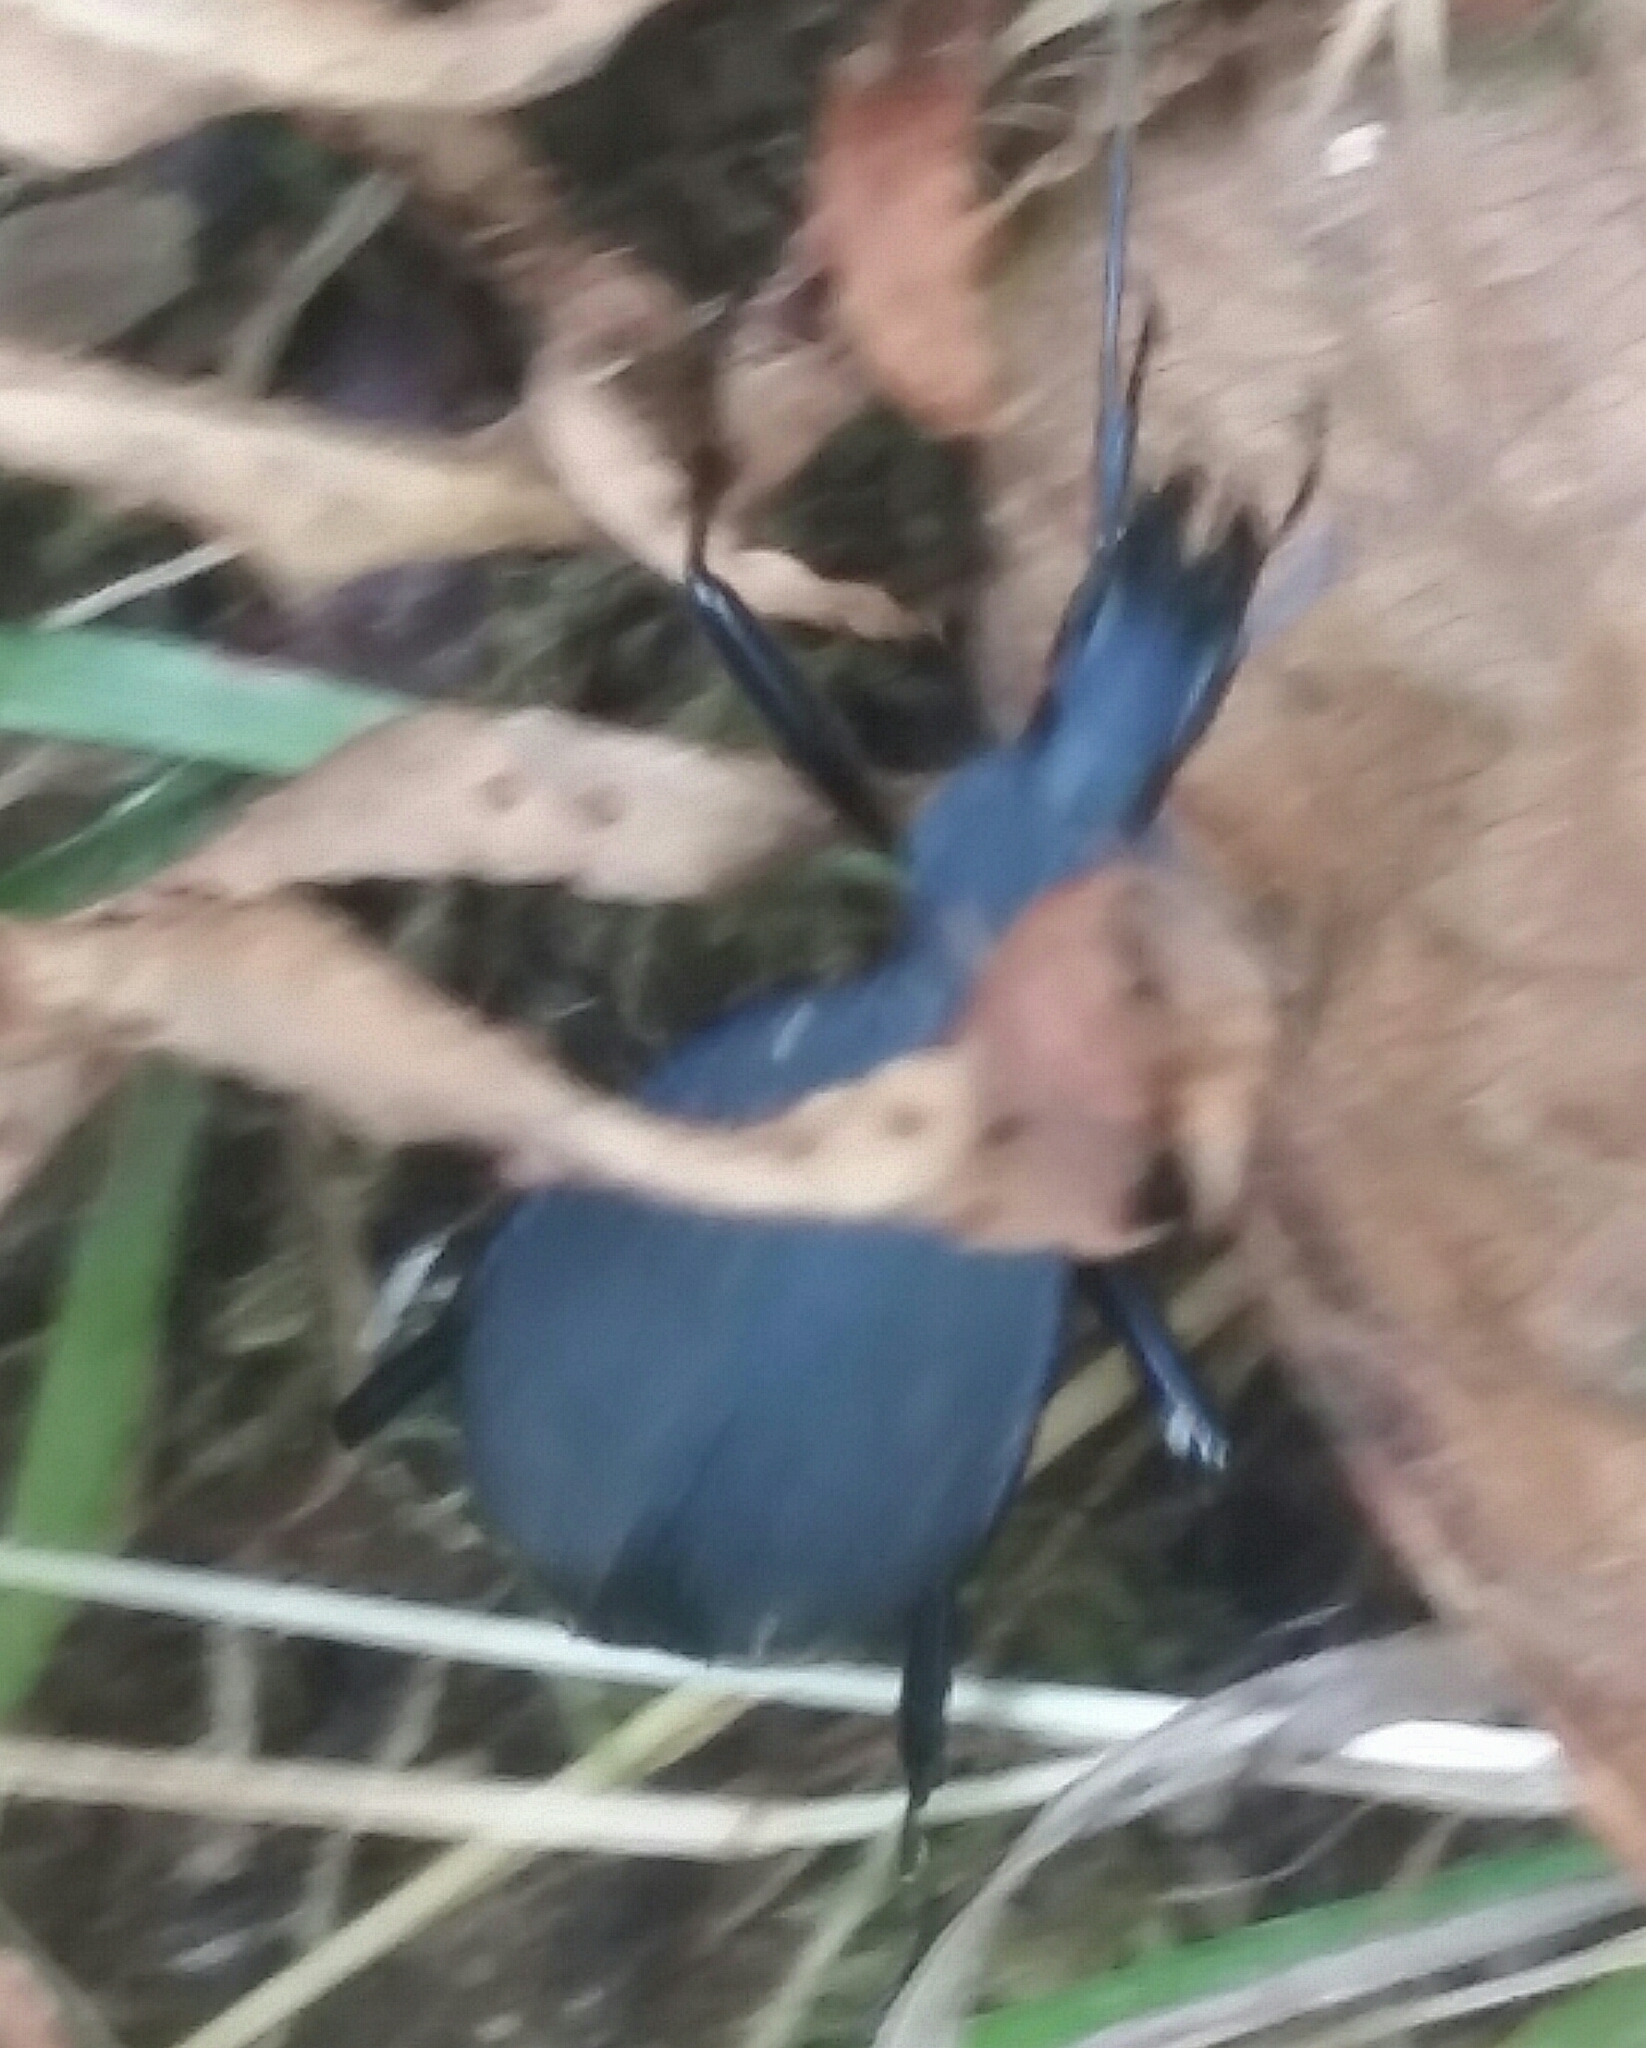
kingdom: Animalia
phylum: Arthropoda
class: Insecta
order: Coleoptera
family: Carabidae
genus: Scaphinotus
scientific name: Scaphinotus velutinus
